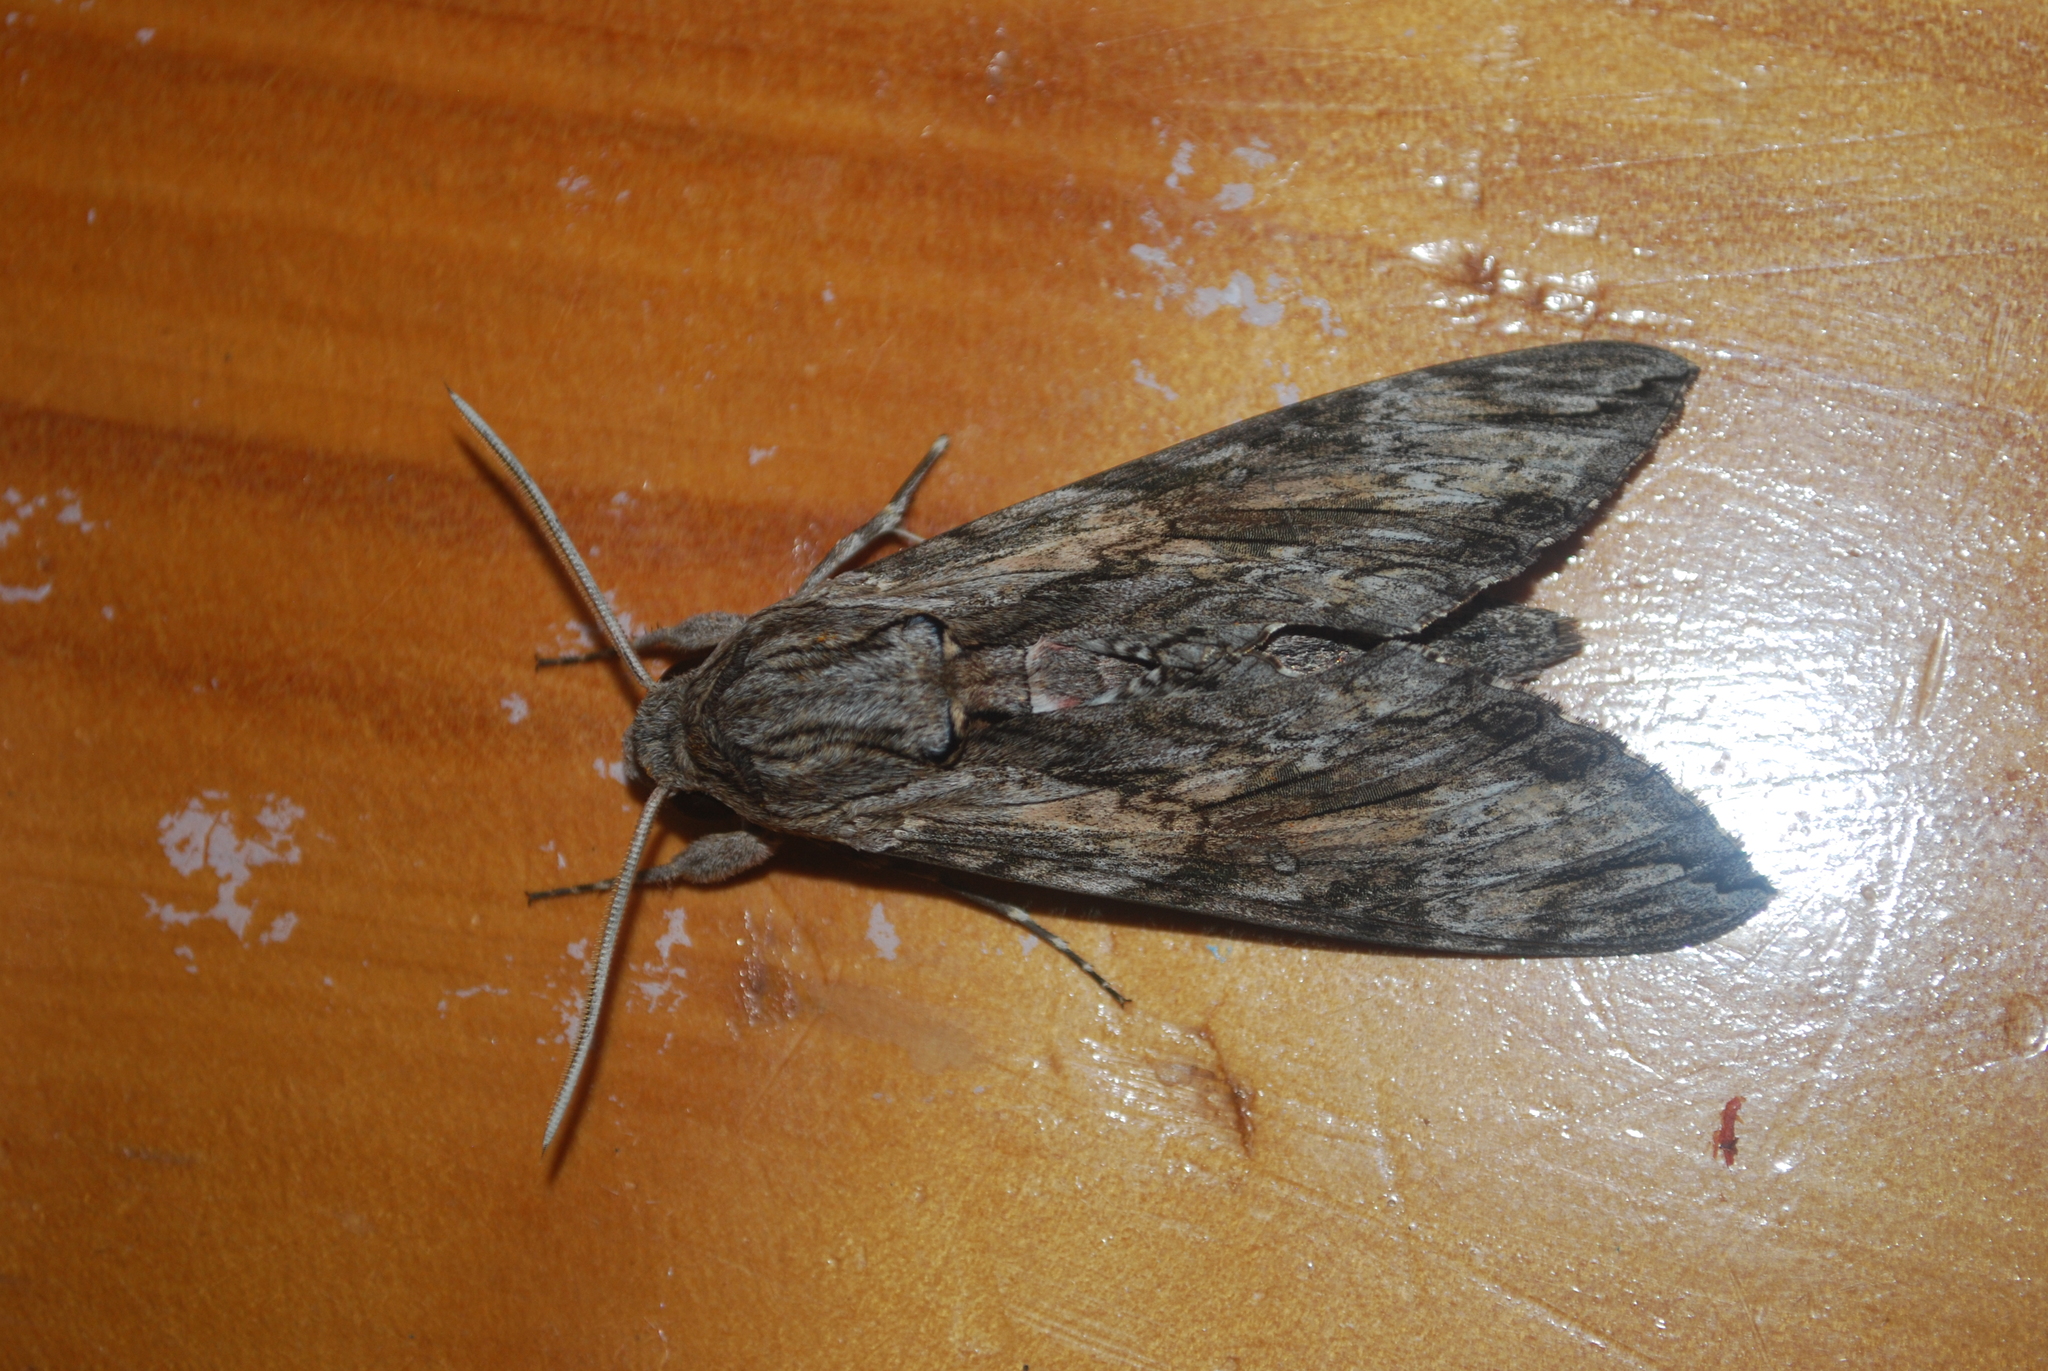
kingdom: Animalia
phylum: Arthropoda
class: Insecta
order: Lepidoptera
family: Sphingidae
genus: Agrius
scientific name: Agrius convolvuli
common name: Convolvulus hawkmoth
